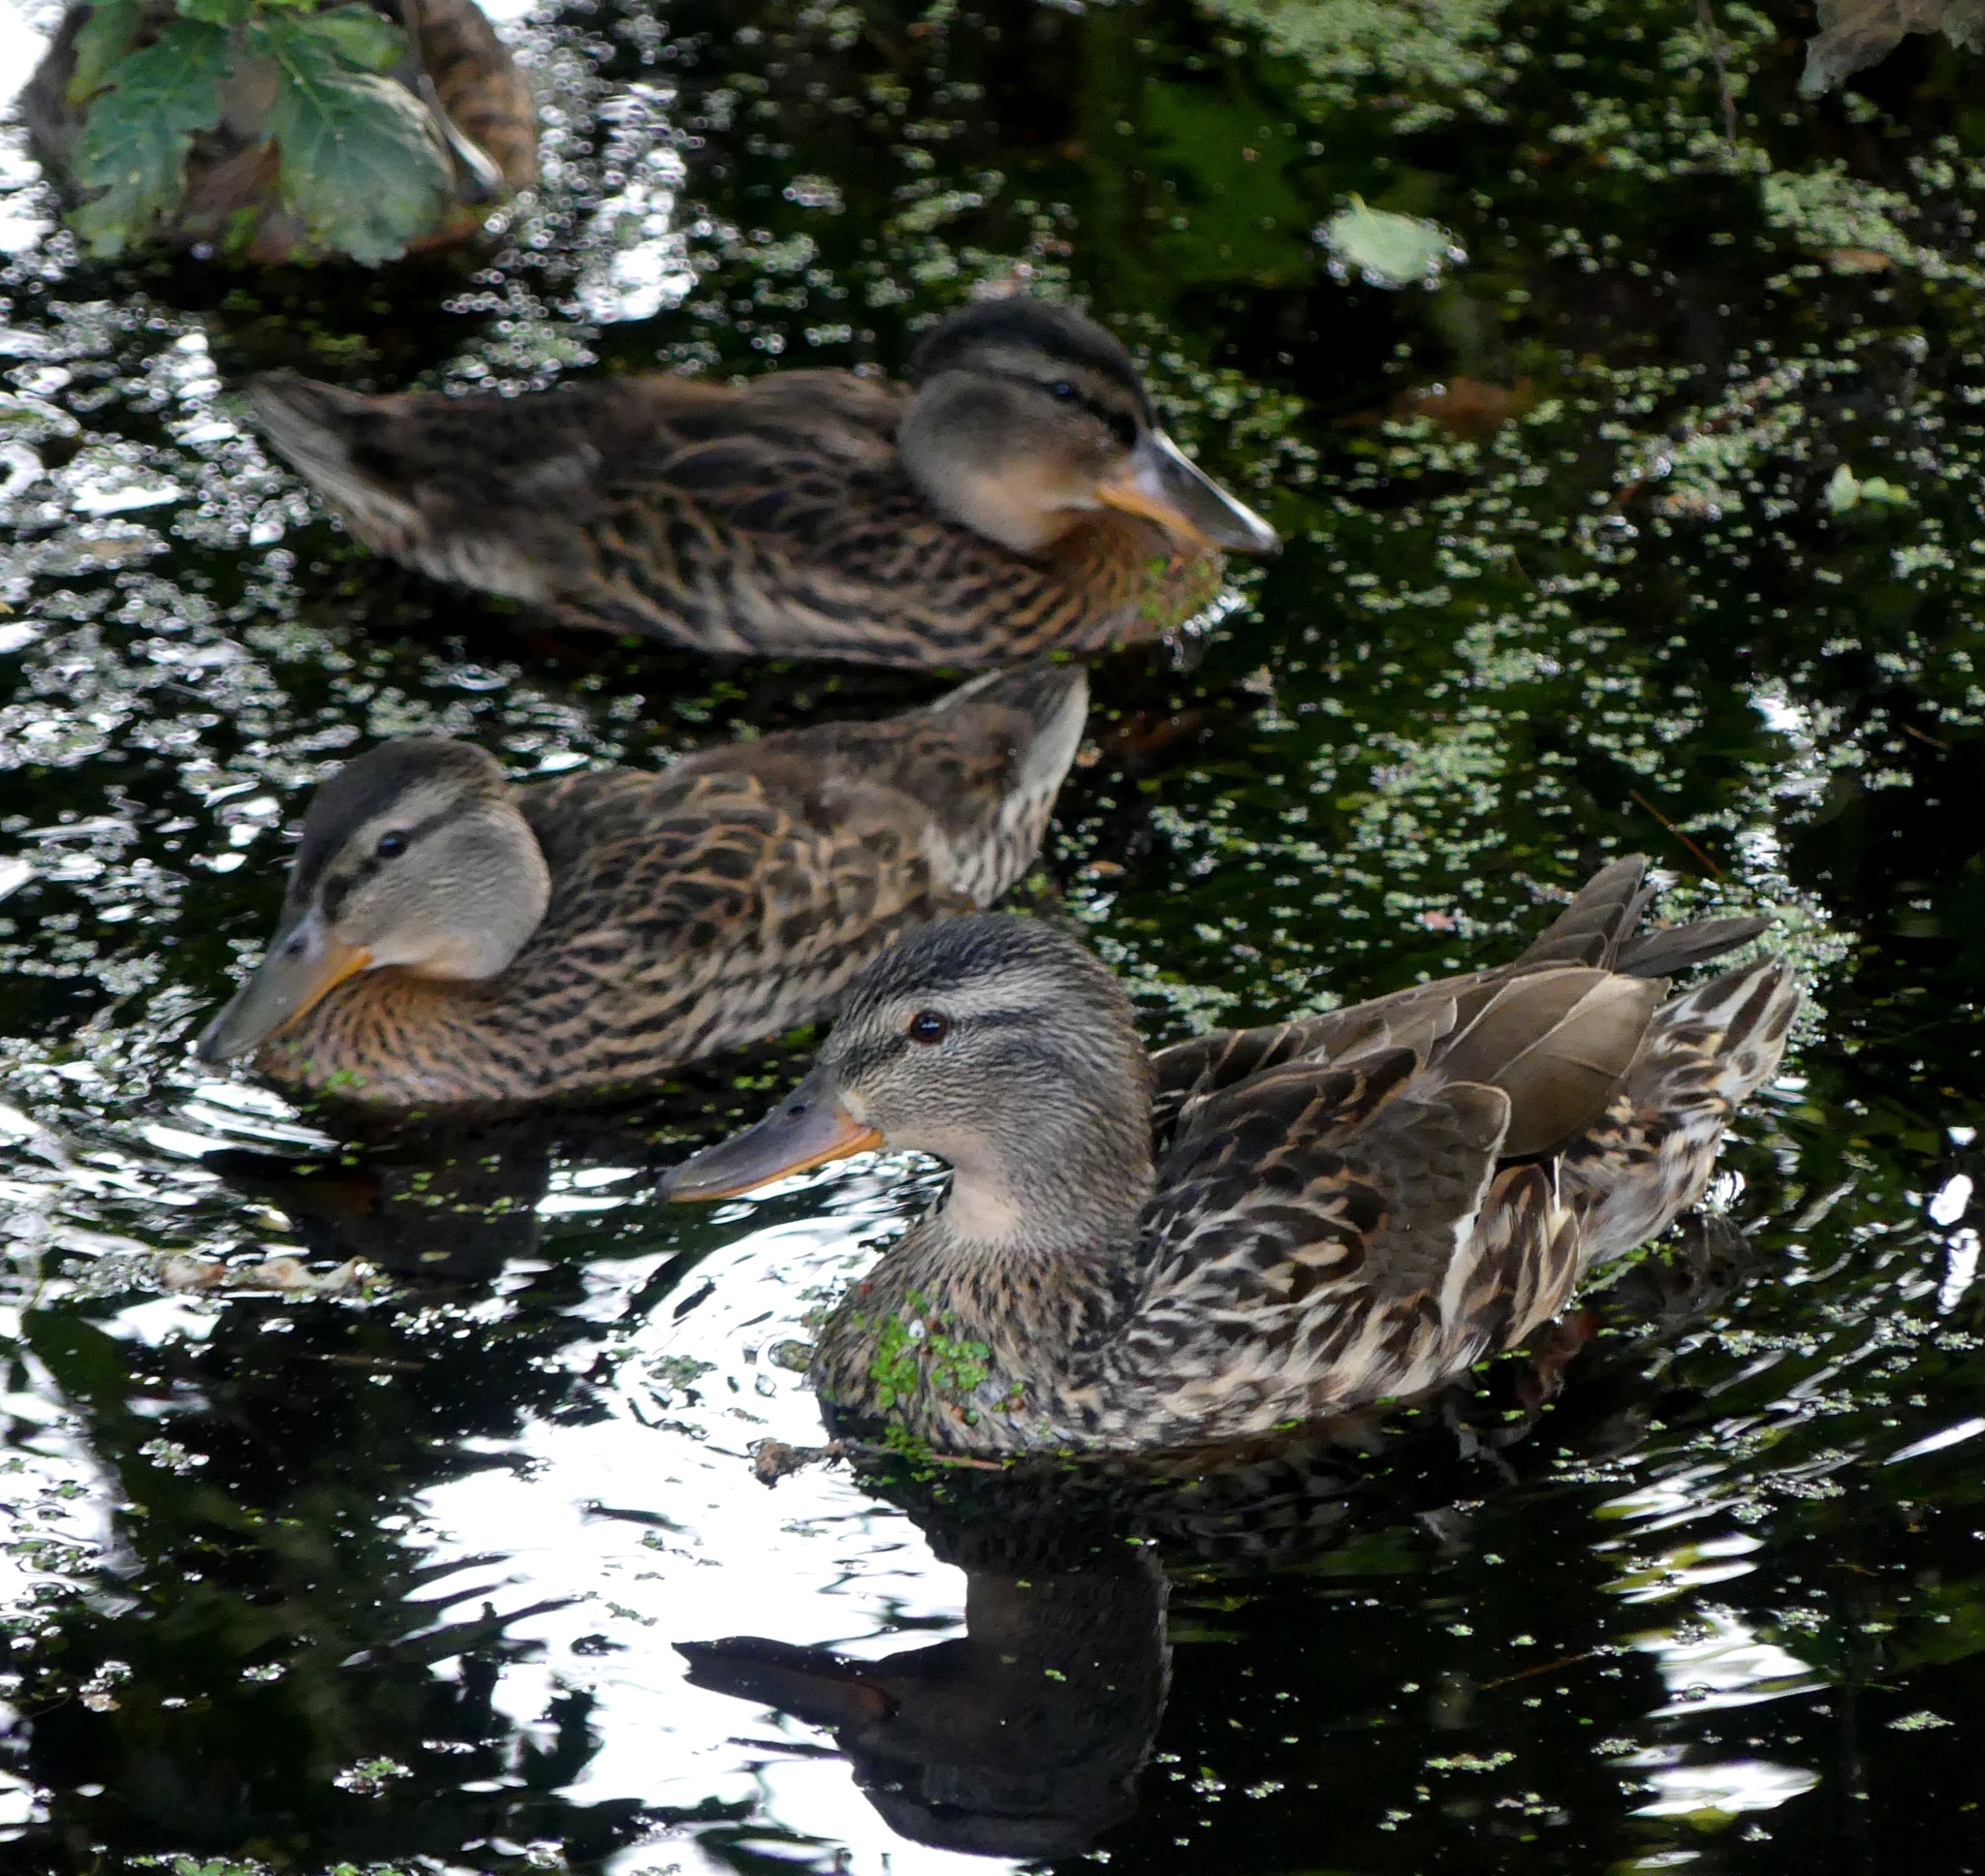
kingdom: Animalia
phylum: Chordata
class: Aves
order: Anseriformes
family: Anatidae
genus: Anas
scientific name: Anas platyrhynchos
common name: Mallard
